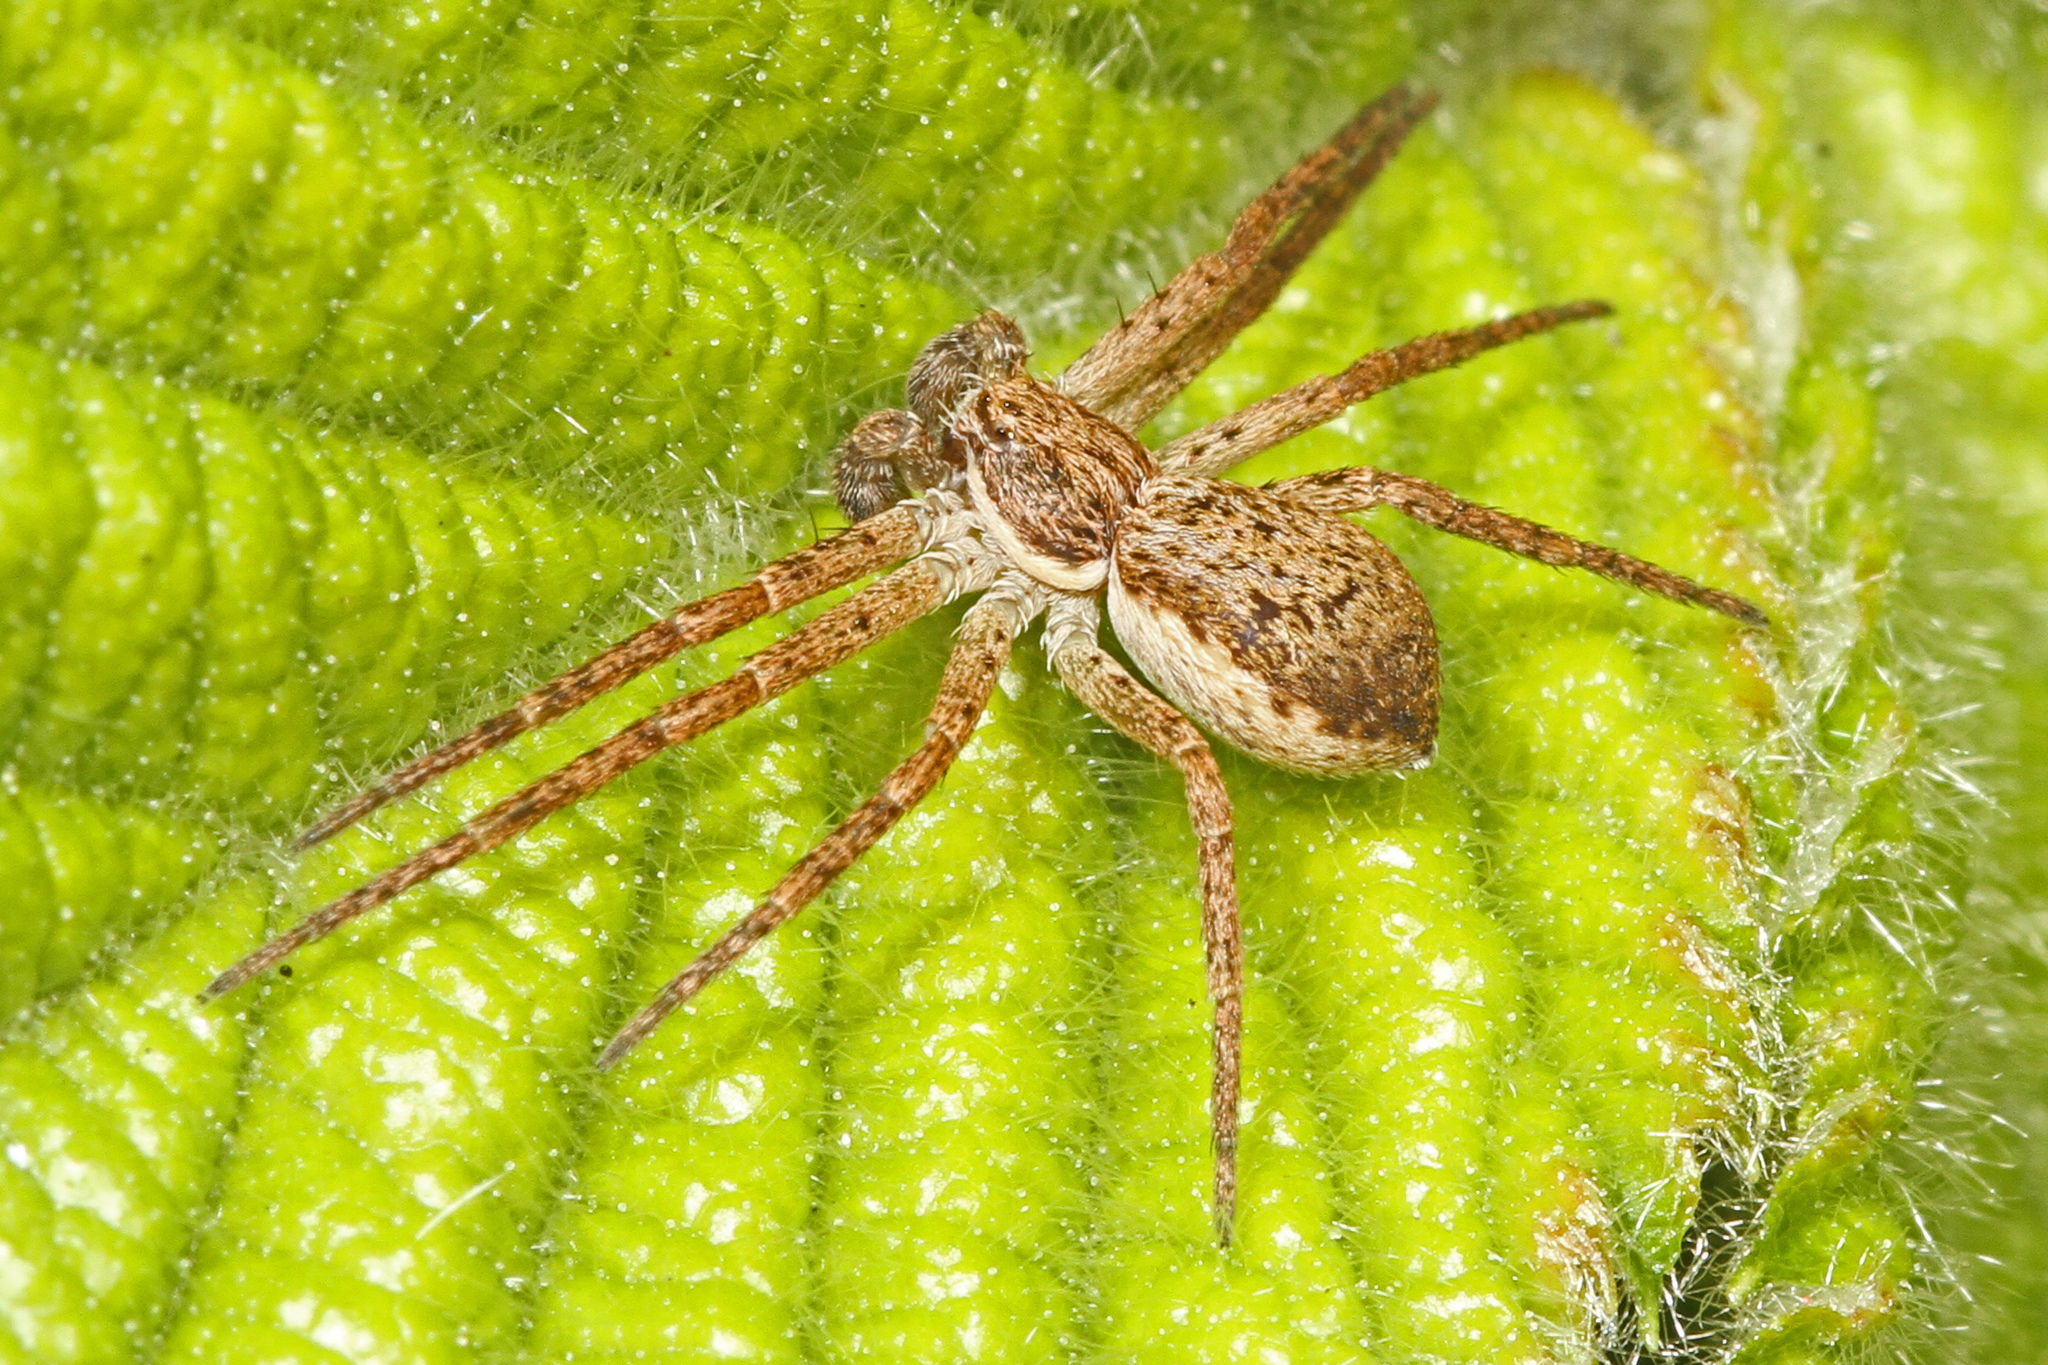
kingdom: Animalia
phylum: Arthropoda
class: Arachnida
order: Araneae
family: Philodromidae
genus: Philodromus
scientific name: Philodromus dispar
